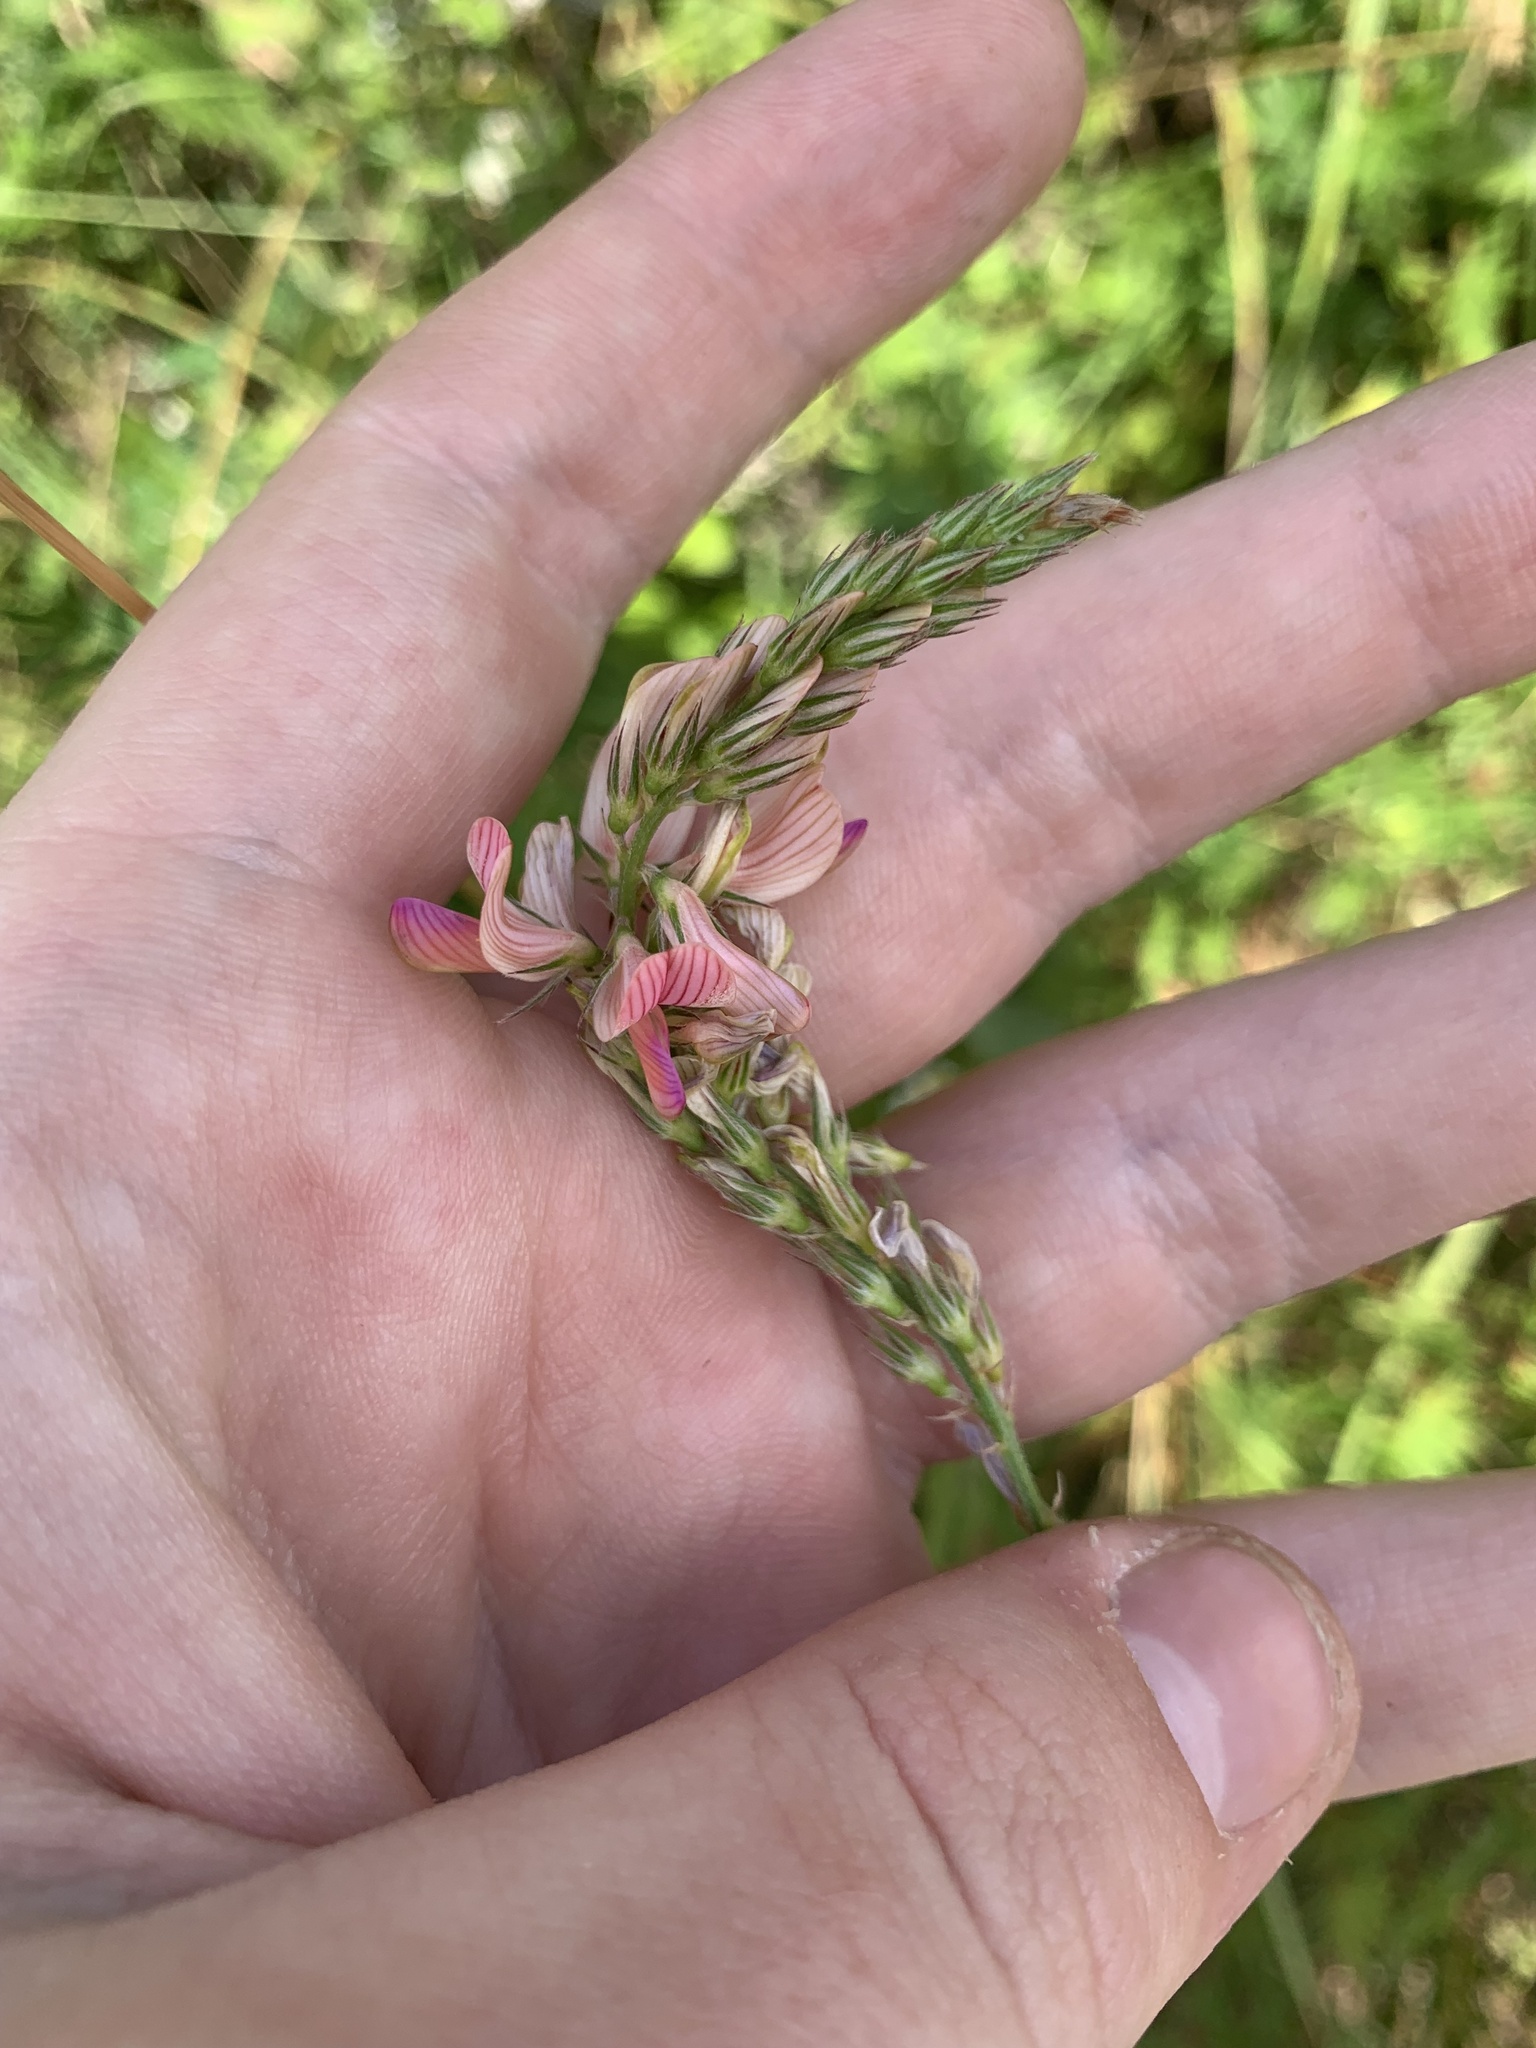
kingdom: Plantae
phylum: Tracheophyta
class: Magnoliopsida
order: Fabales
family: Fabaceae
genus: Onobrychis
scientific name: Onobrychis viciifolia
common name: Sainfoin
